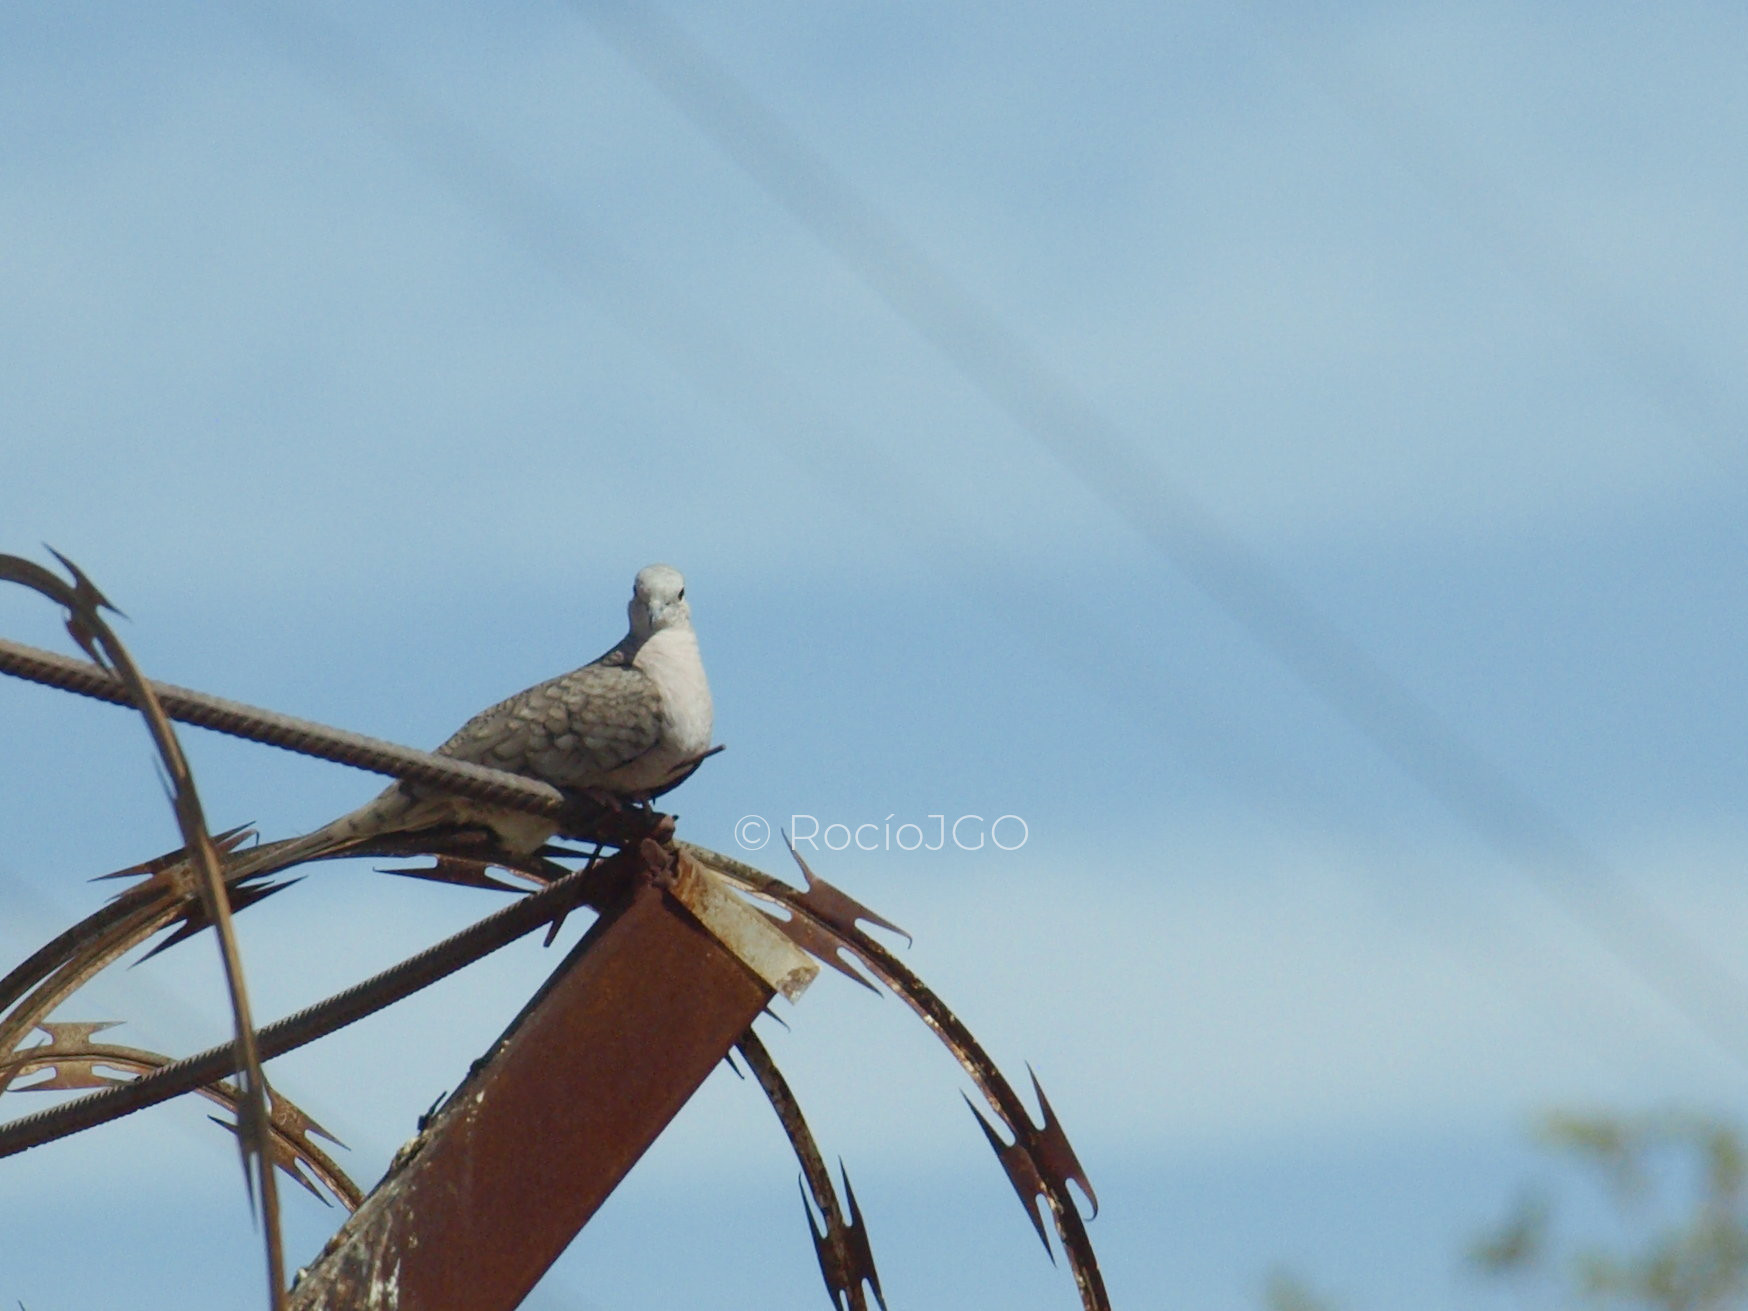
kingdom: Animalia
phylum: Chordata
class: Aves
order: Columbiformes
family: Columbidae
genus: Columbina
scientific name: Columbina inca
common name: Inca dove
